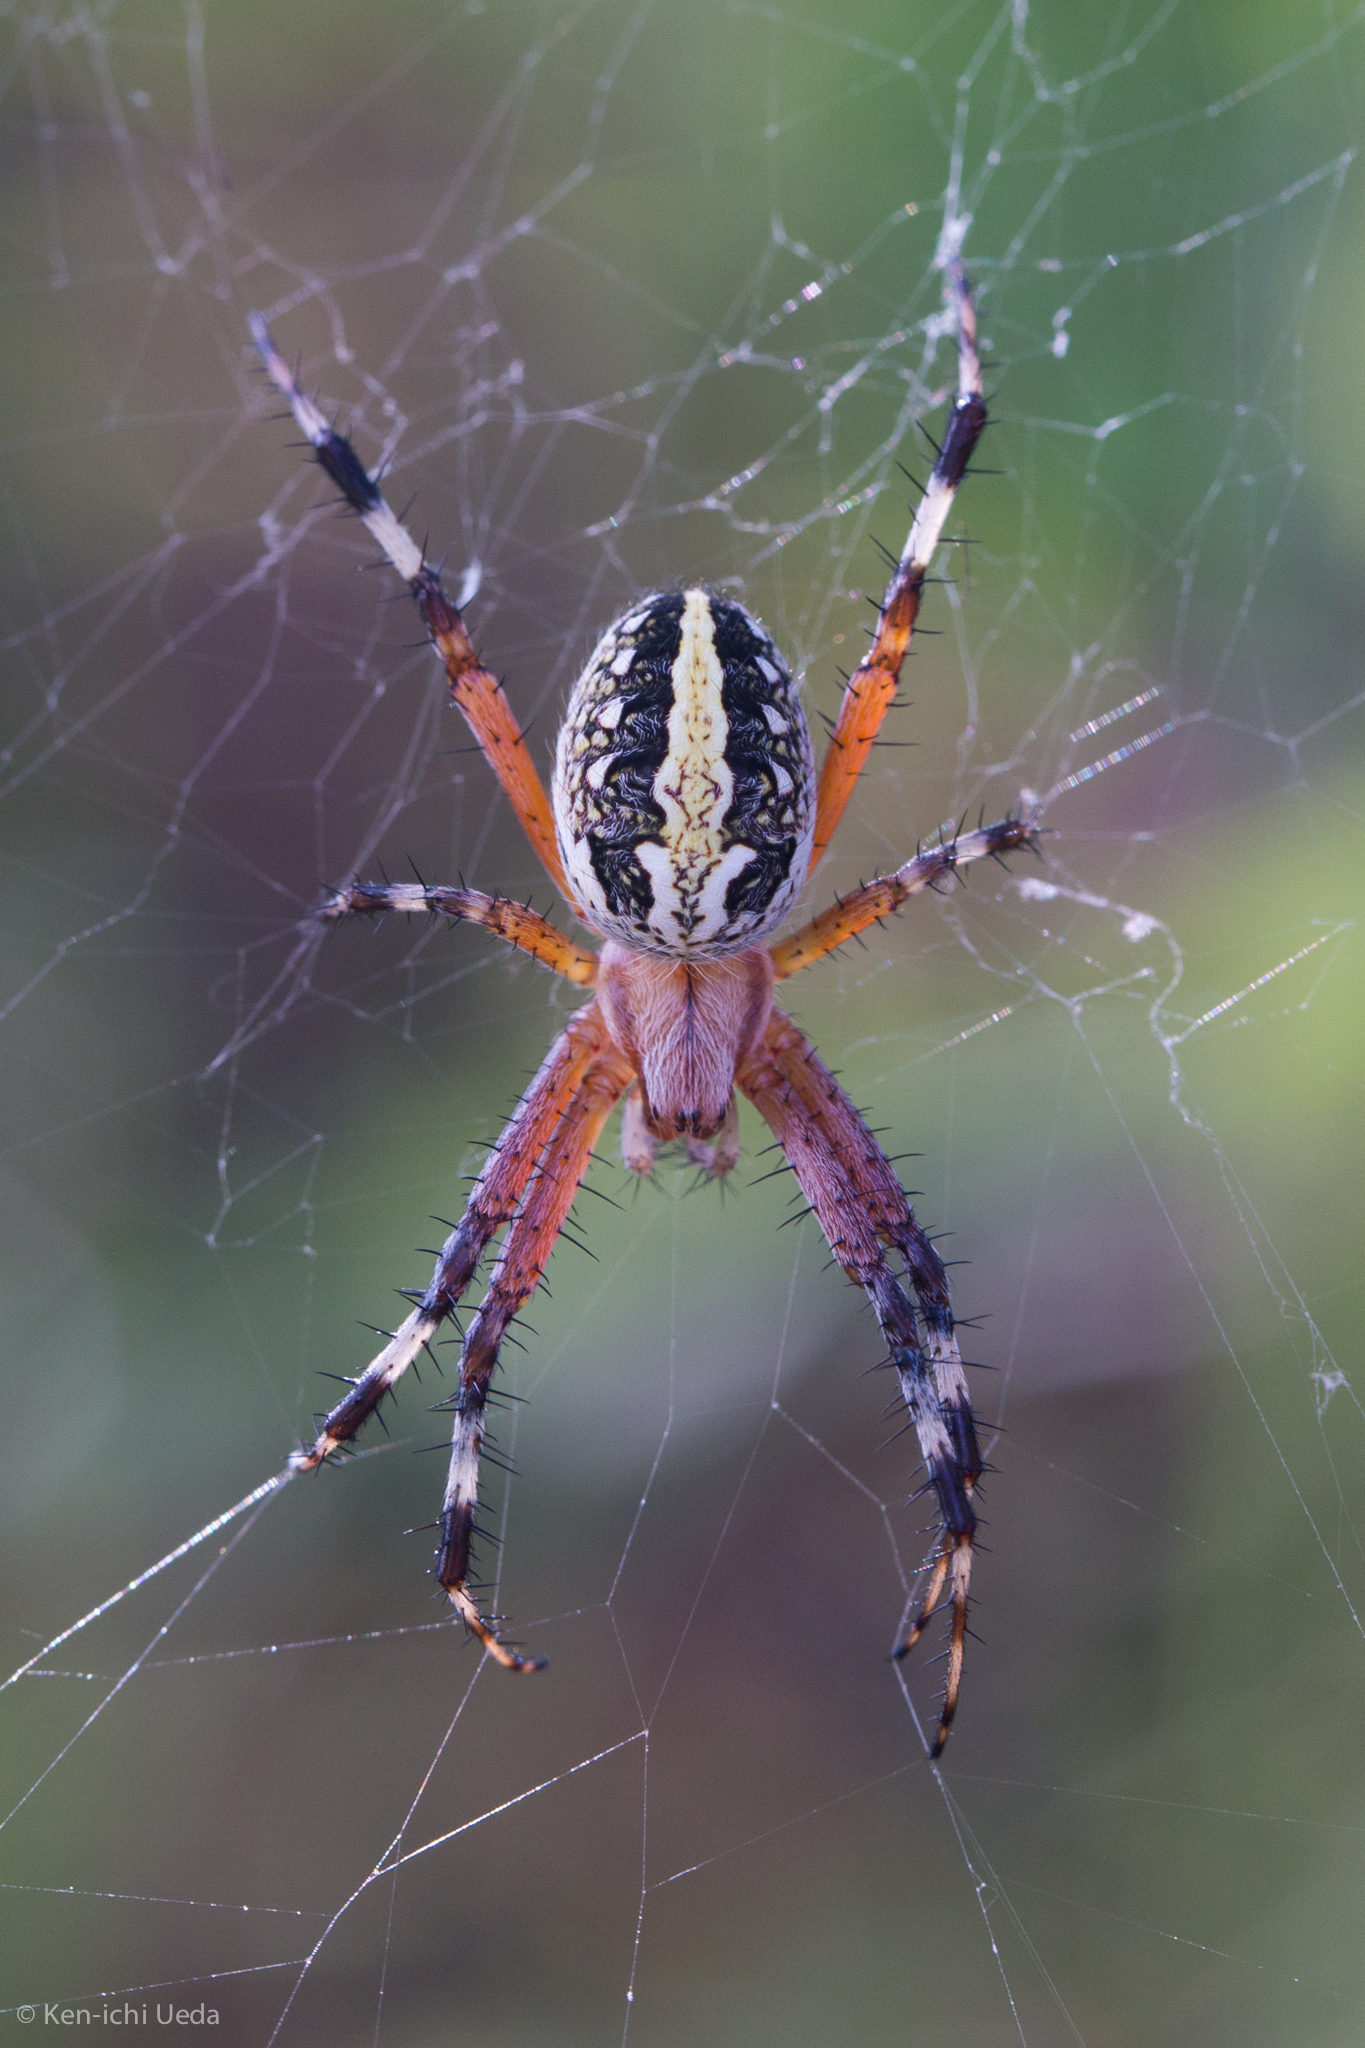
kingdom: Animalia
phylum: Arthropoda
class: Arachnida
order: Araneae
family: Araneidae
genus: Neoscona
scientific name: Neoscona oaxacensis
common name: Orb weavers
